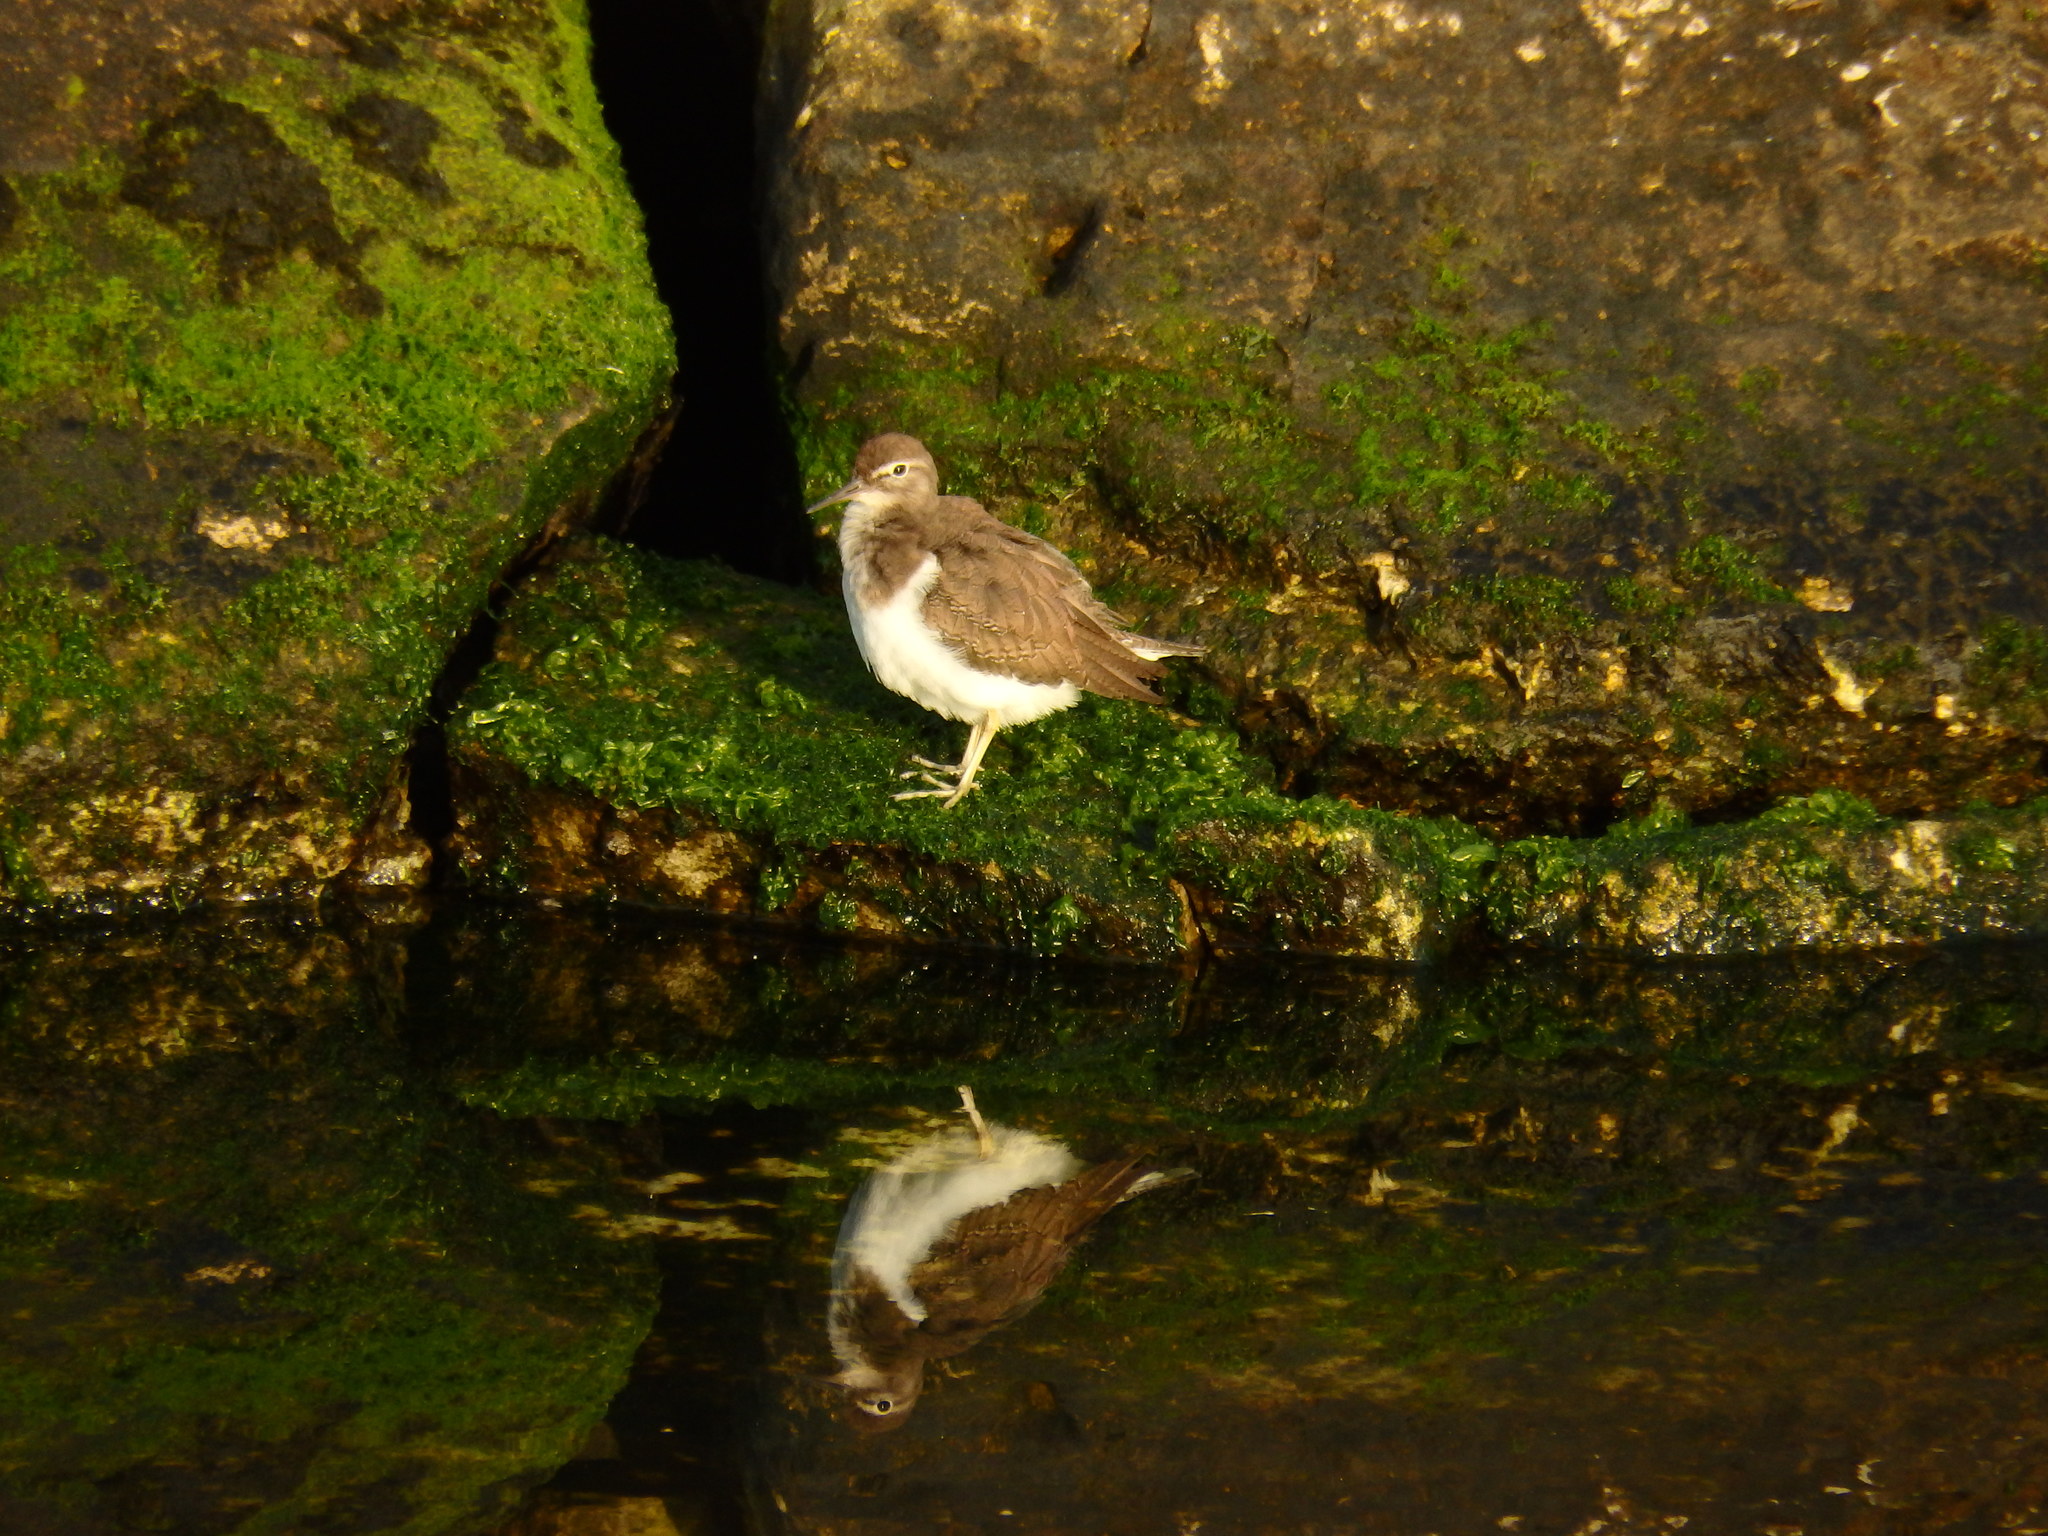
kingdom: Animalia
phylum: Chordata
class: Aves
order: Charadriiformes
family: Scolopacidae
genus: Actitis
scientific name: Actitis hypoleucos
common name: Common sandpiper
